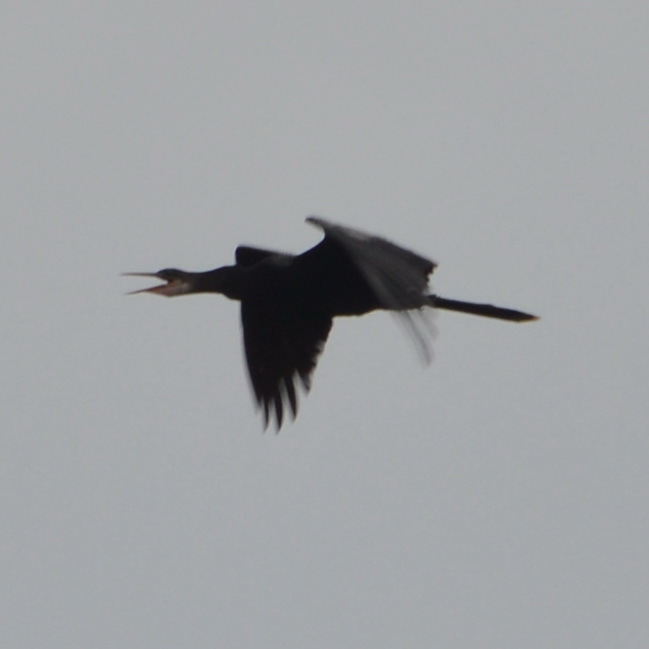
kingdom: Animalia
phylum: Chordata
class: Aves
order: Suliformes
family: Anhingidae
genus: Anhinga
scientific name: Anhinga anhinga
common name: Anhinga
